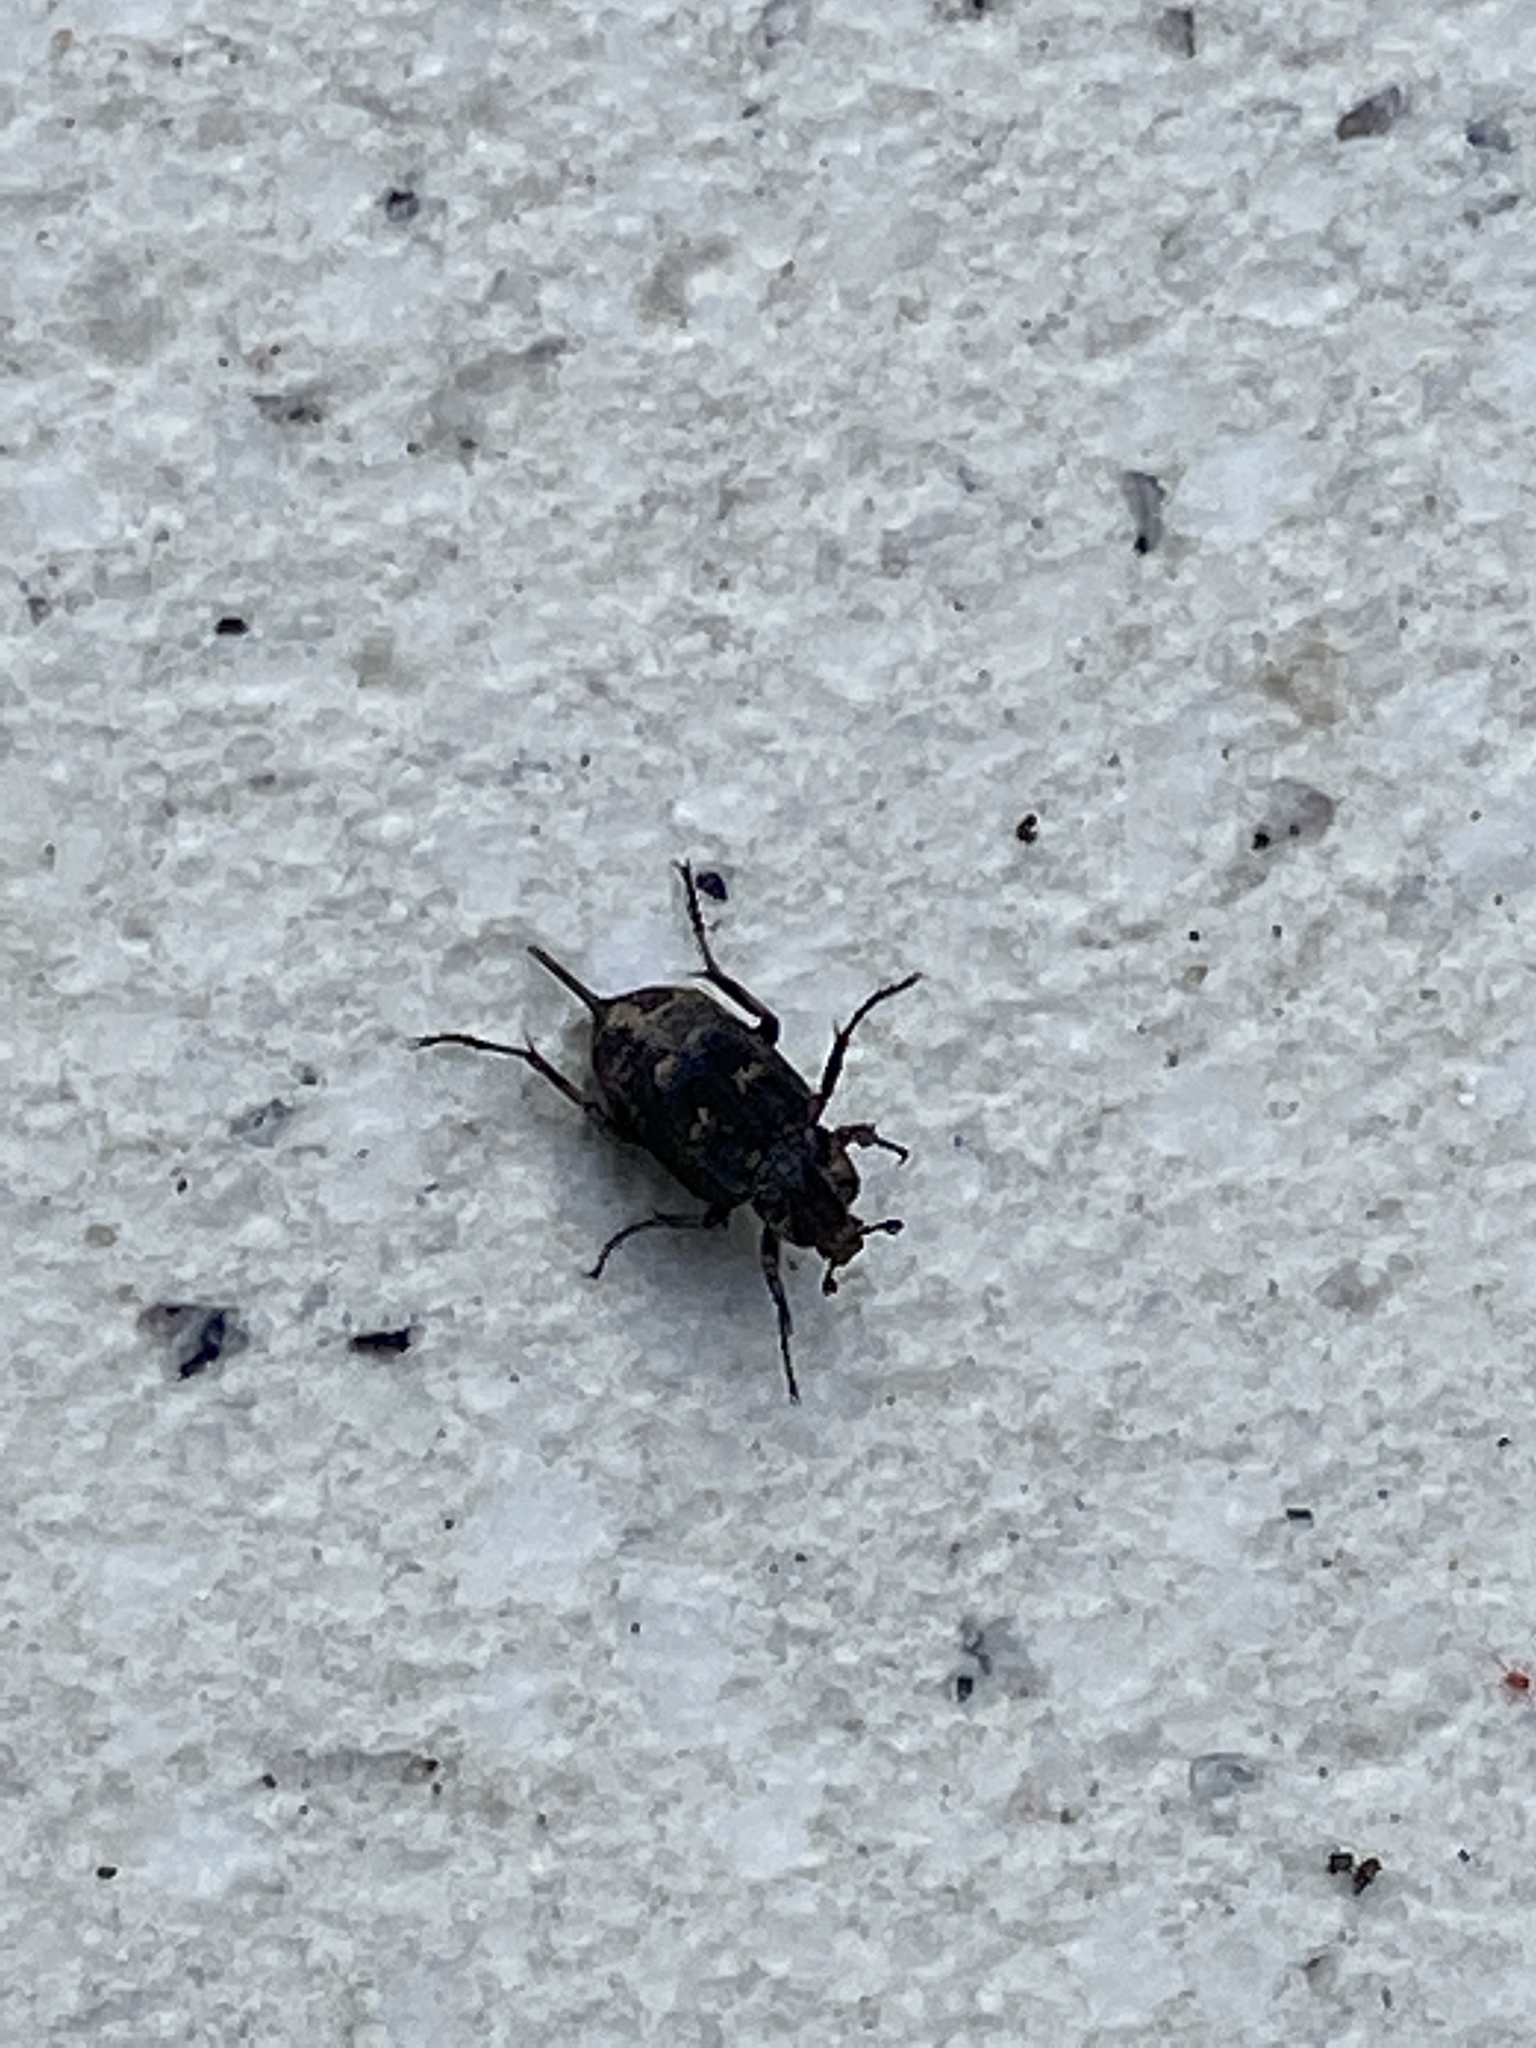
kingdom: Animalia
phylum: Arthropoda
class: Insecta
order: Coleoptera
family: Scarabaeidae
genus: Valgus
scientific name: Valgus hemipterus
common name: Bug flower chafer
